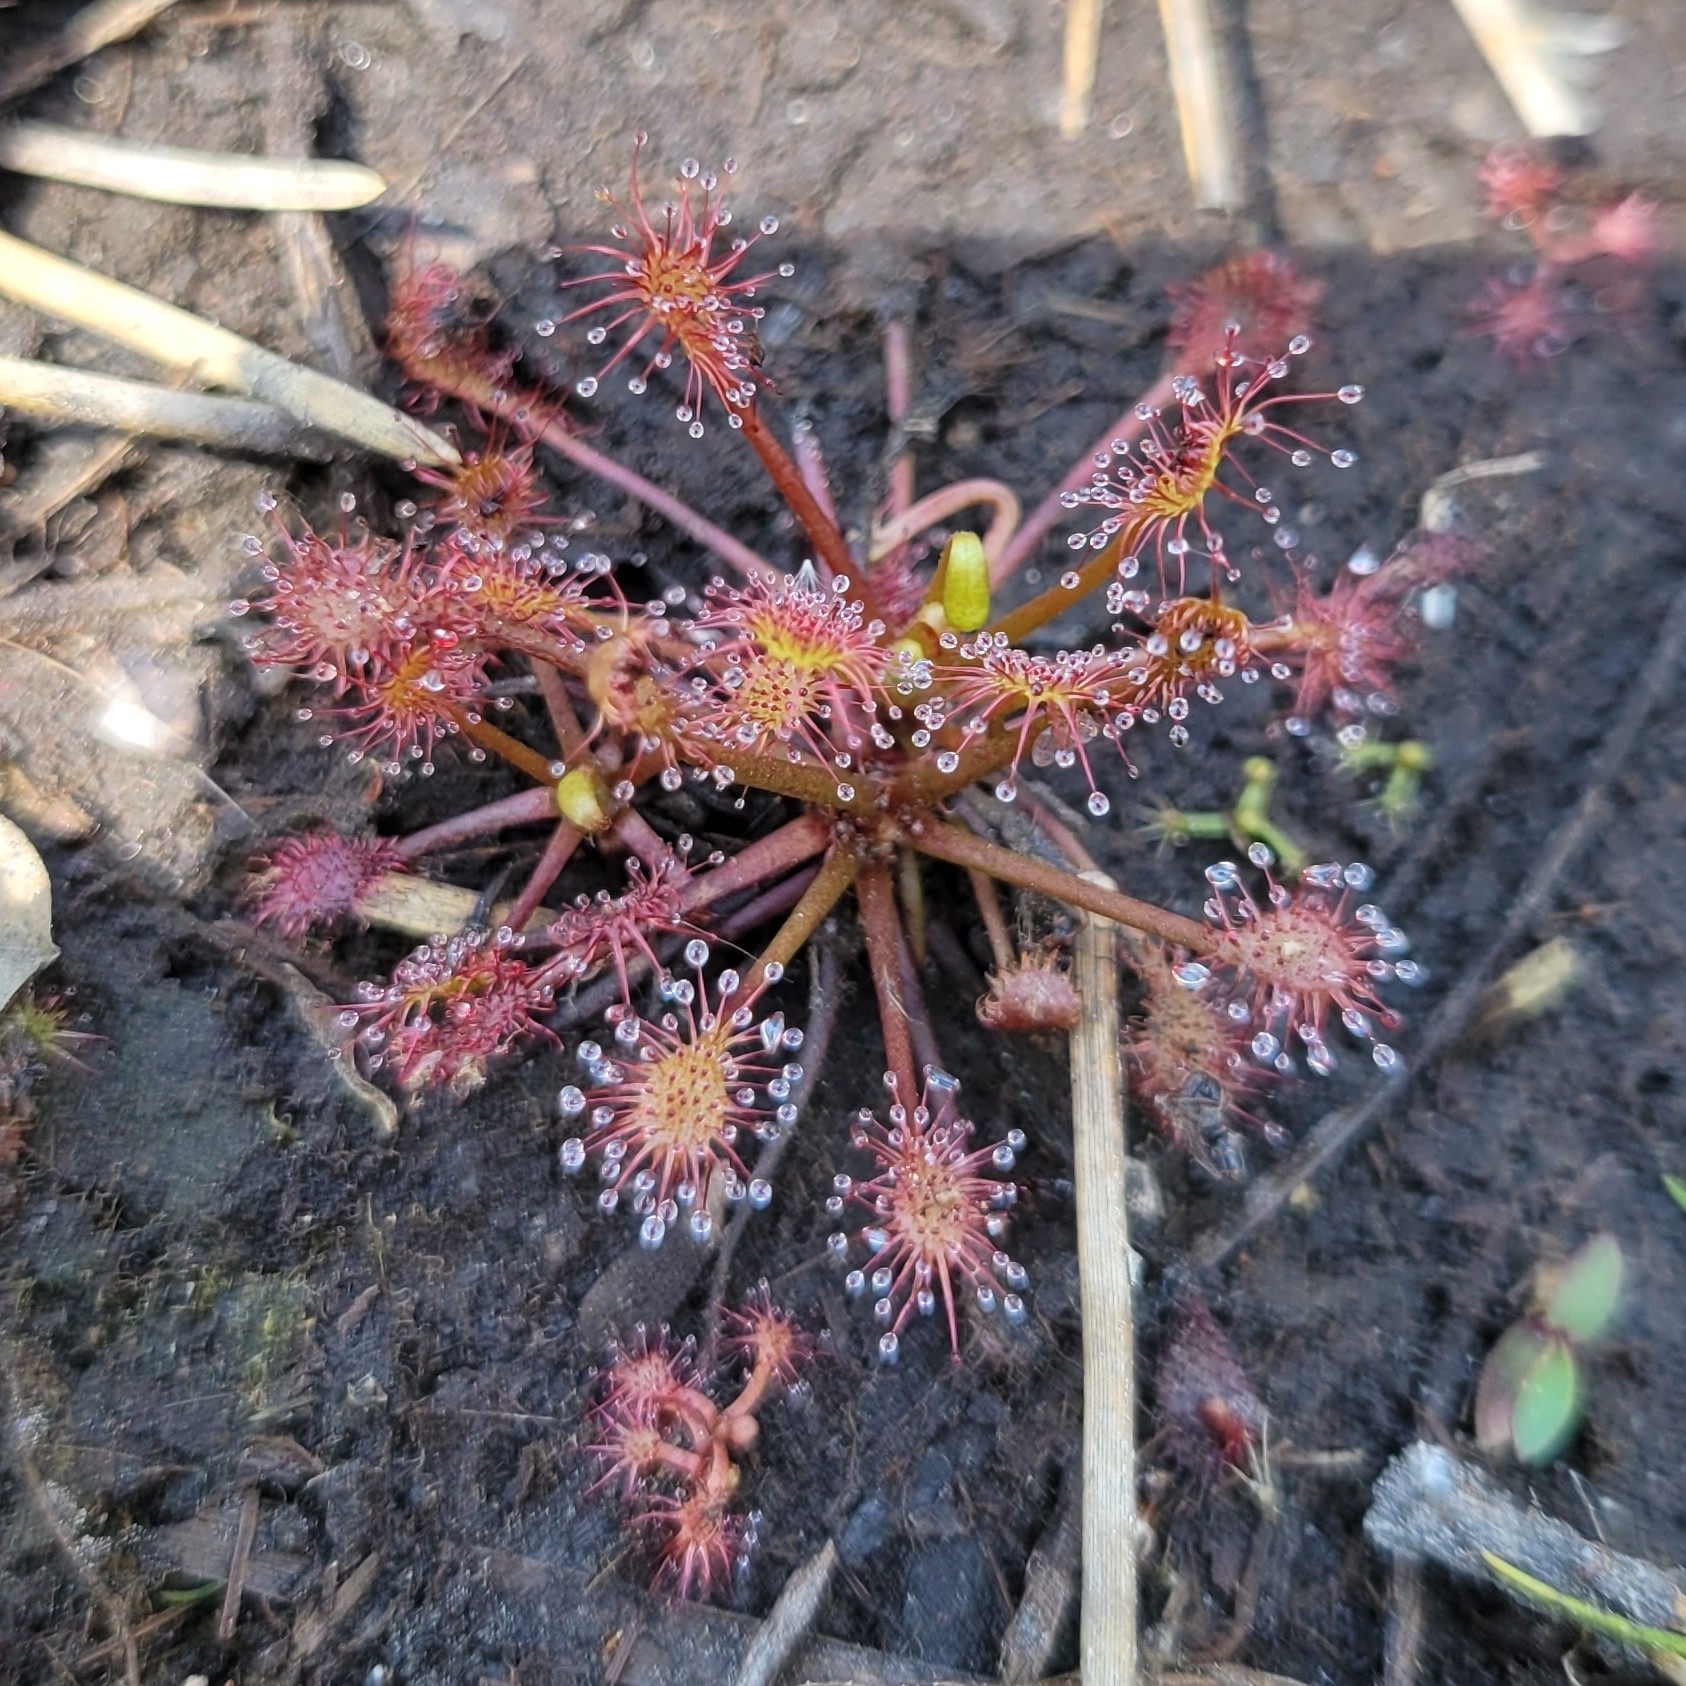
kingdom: Plantae
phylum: Tracheophyta
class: Magnoliopsida
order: Caryophyllales
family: Droseraceae
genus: Drosera
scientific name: Drosera intermedia
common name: Oblong-leaved sundew
